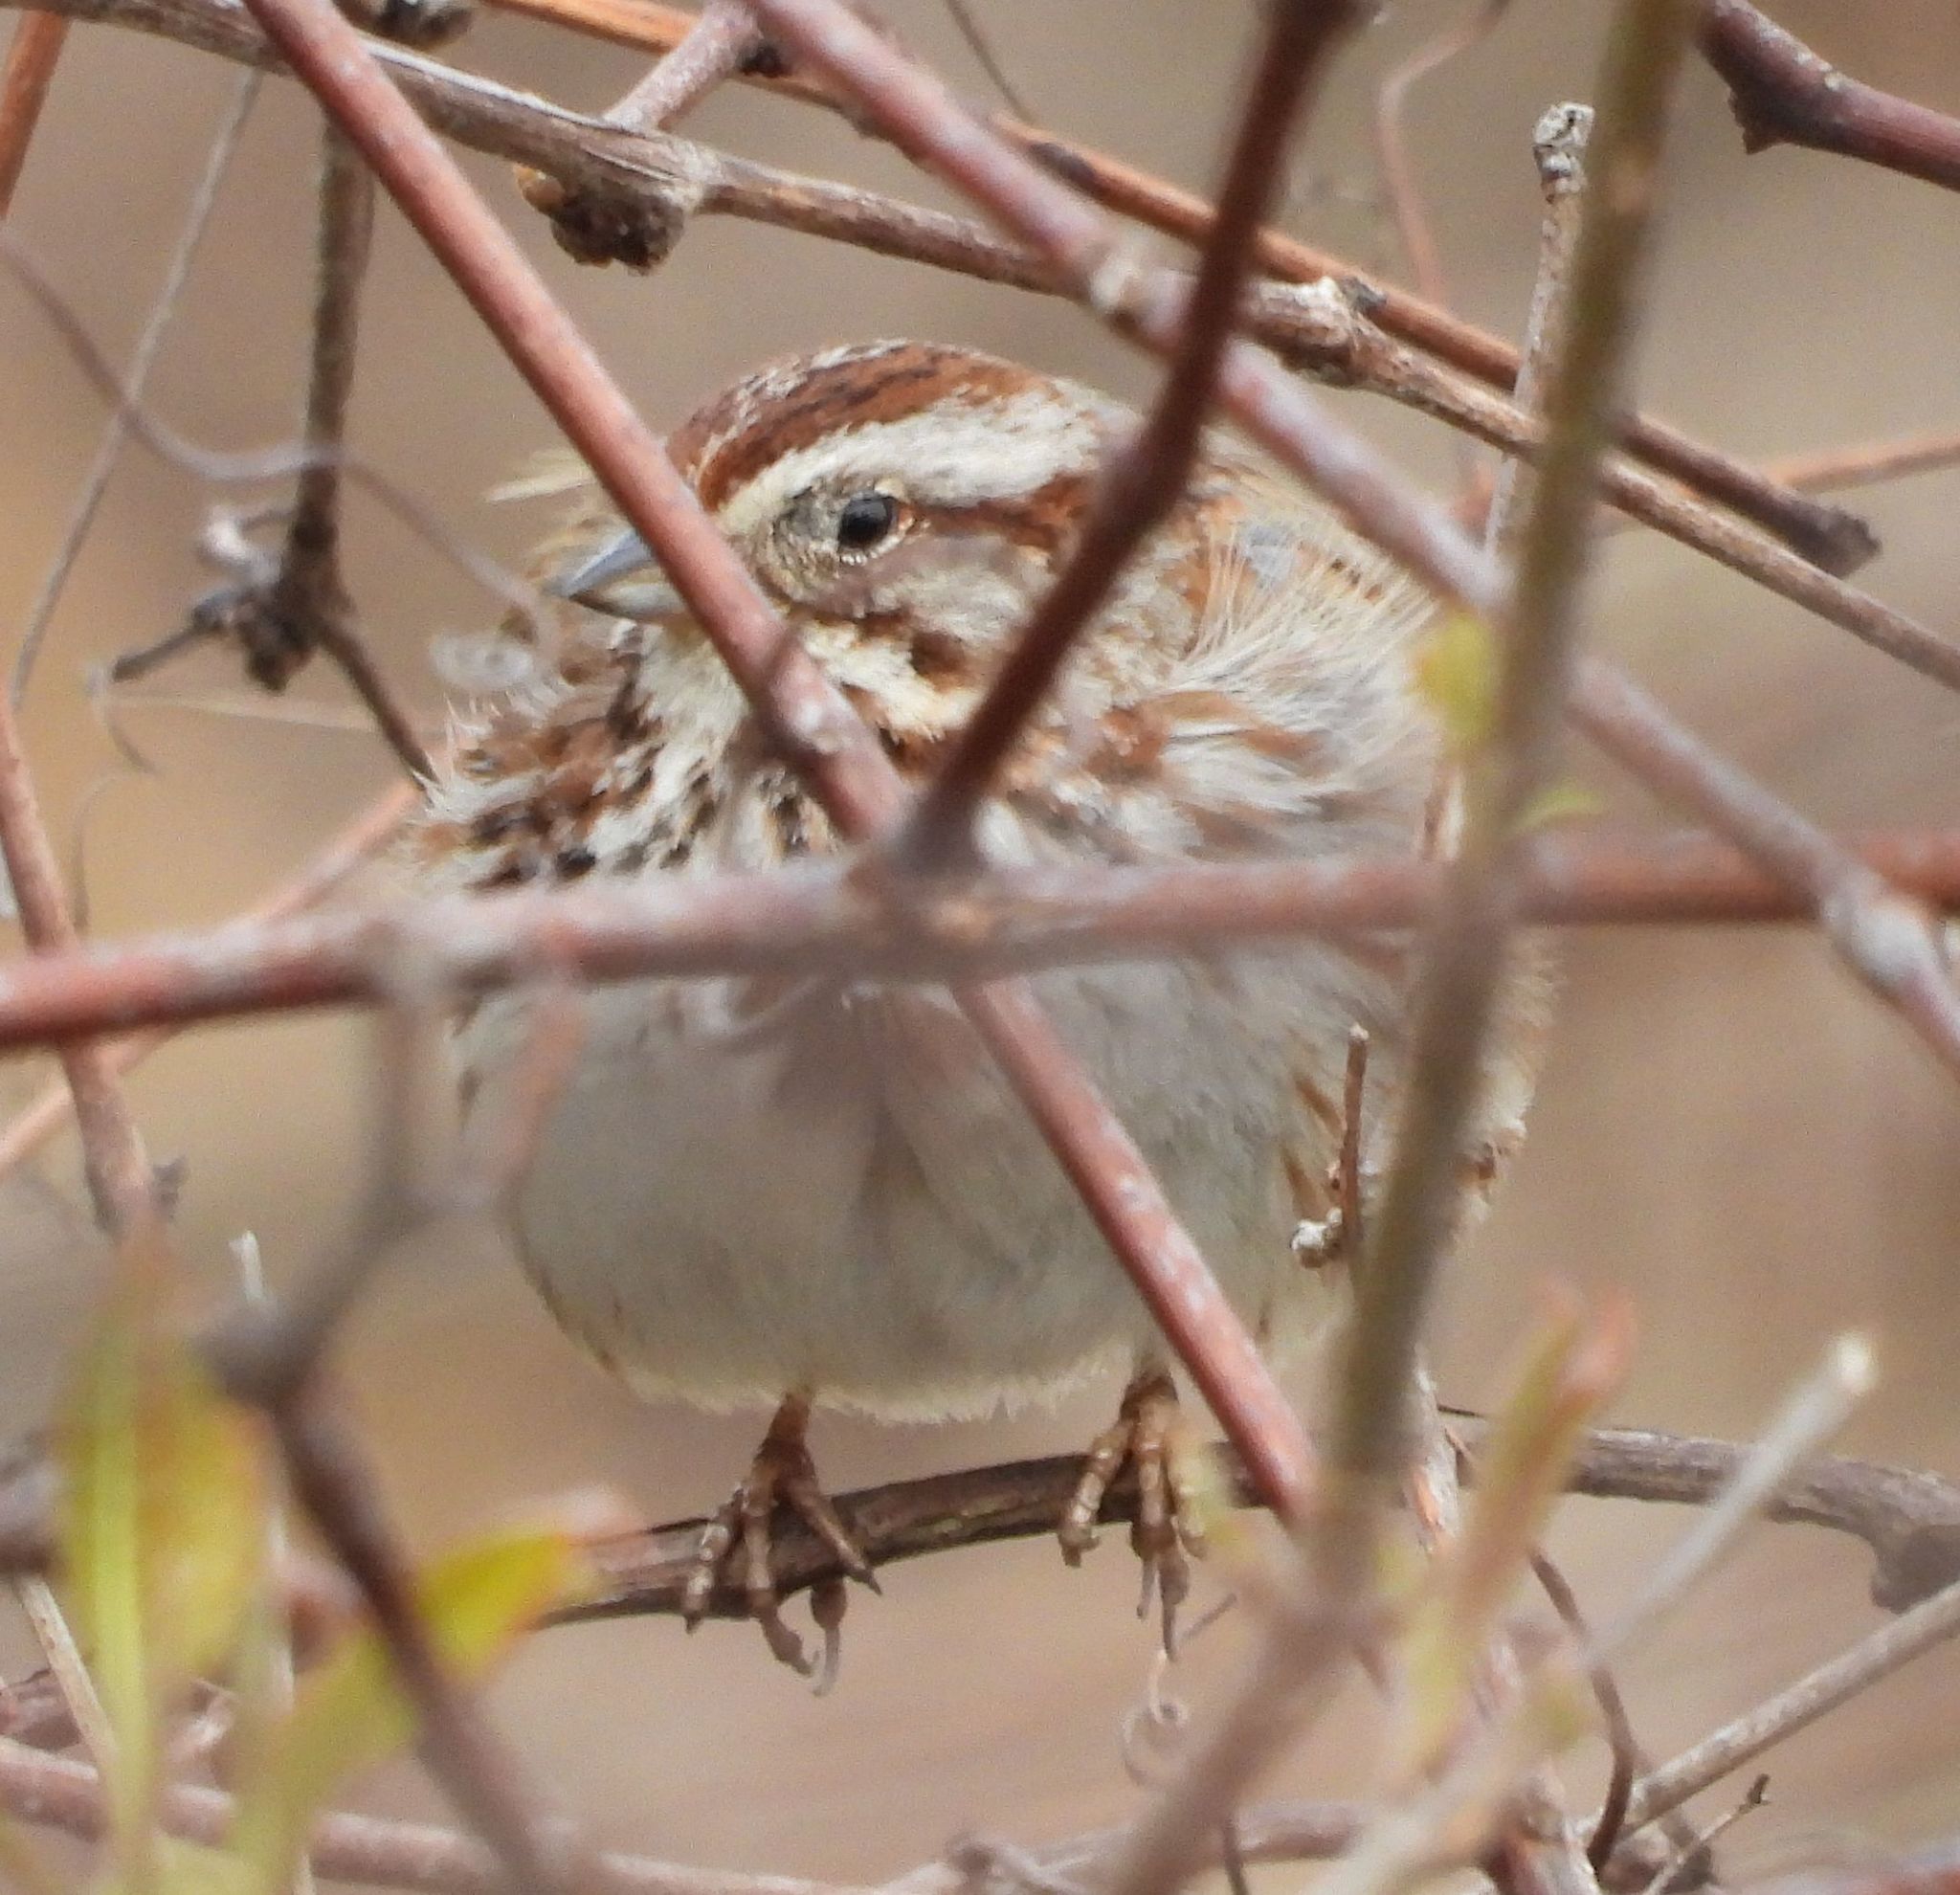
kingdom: Animalia
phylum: Chordata
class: Aves
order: Passeriformes
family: Passerellidae
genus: Melospiza
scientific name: Melospiza melodia
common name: Song sparrow
